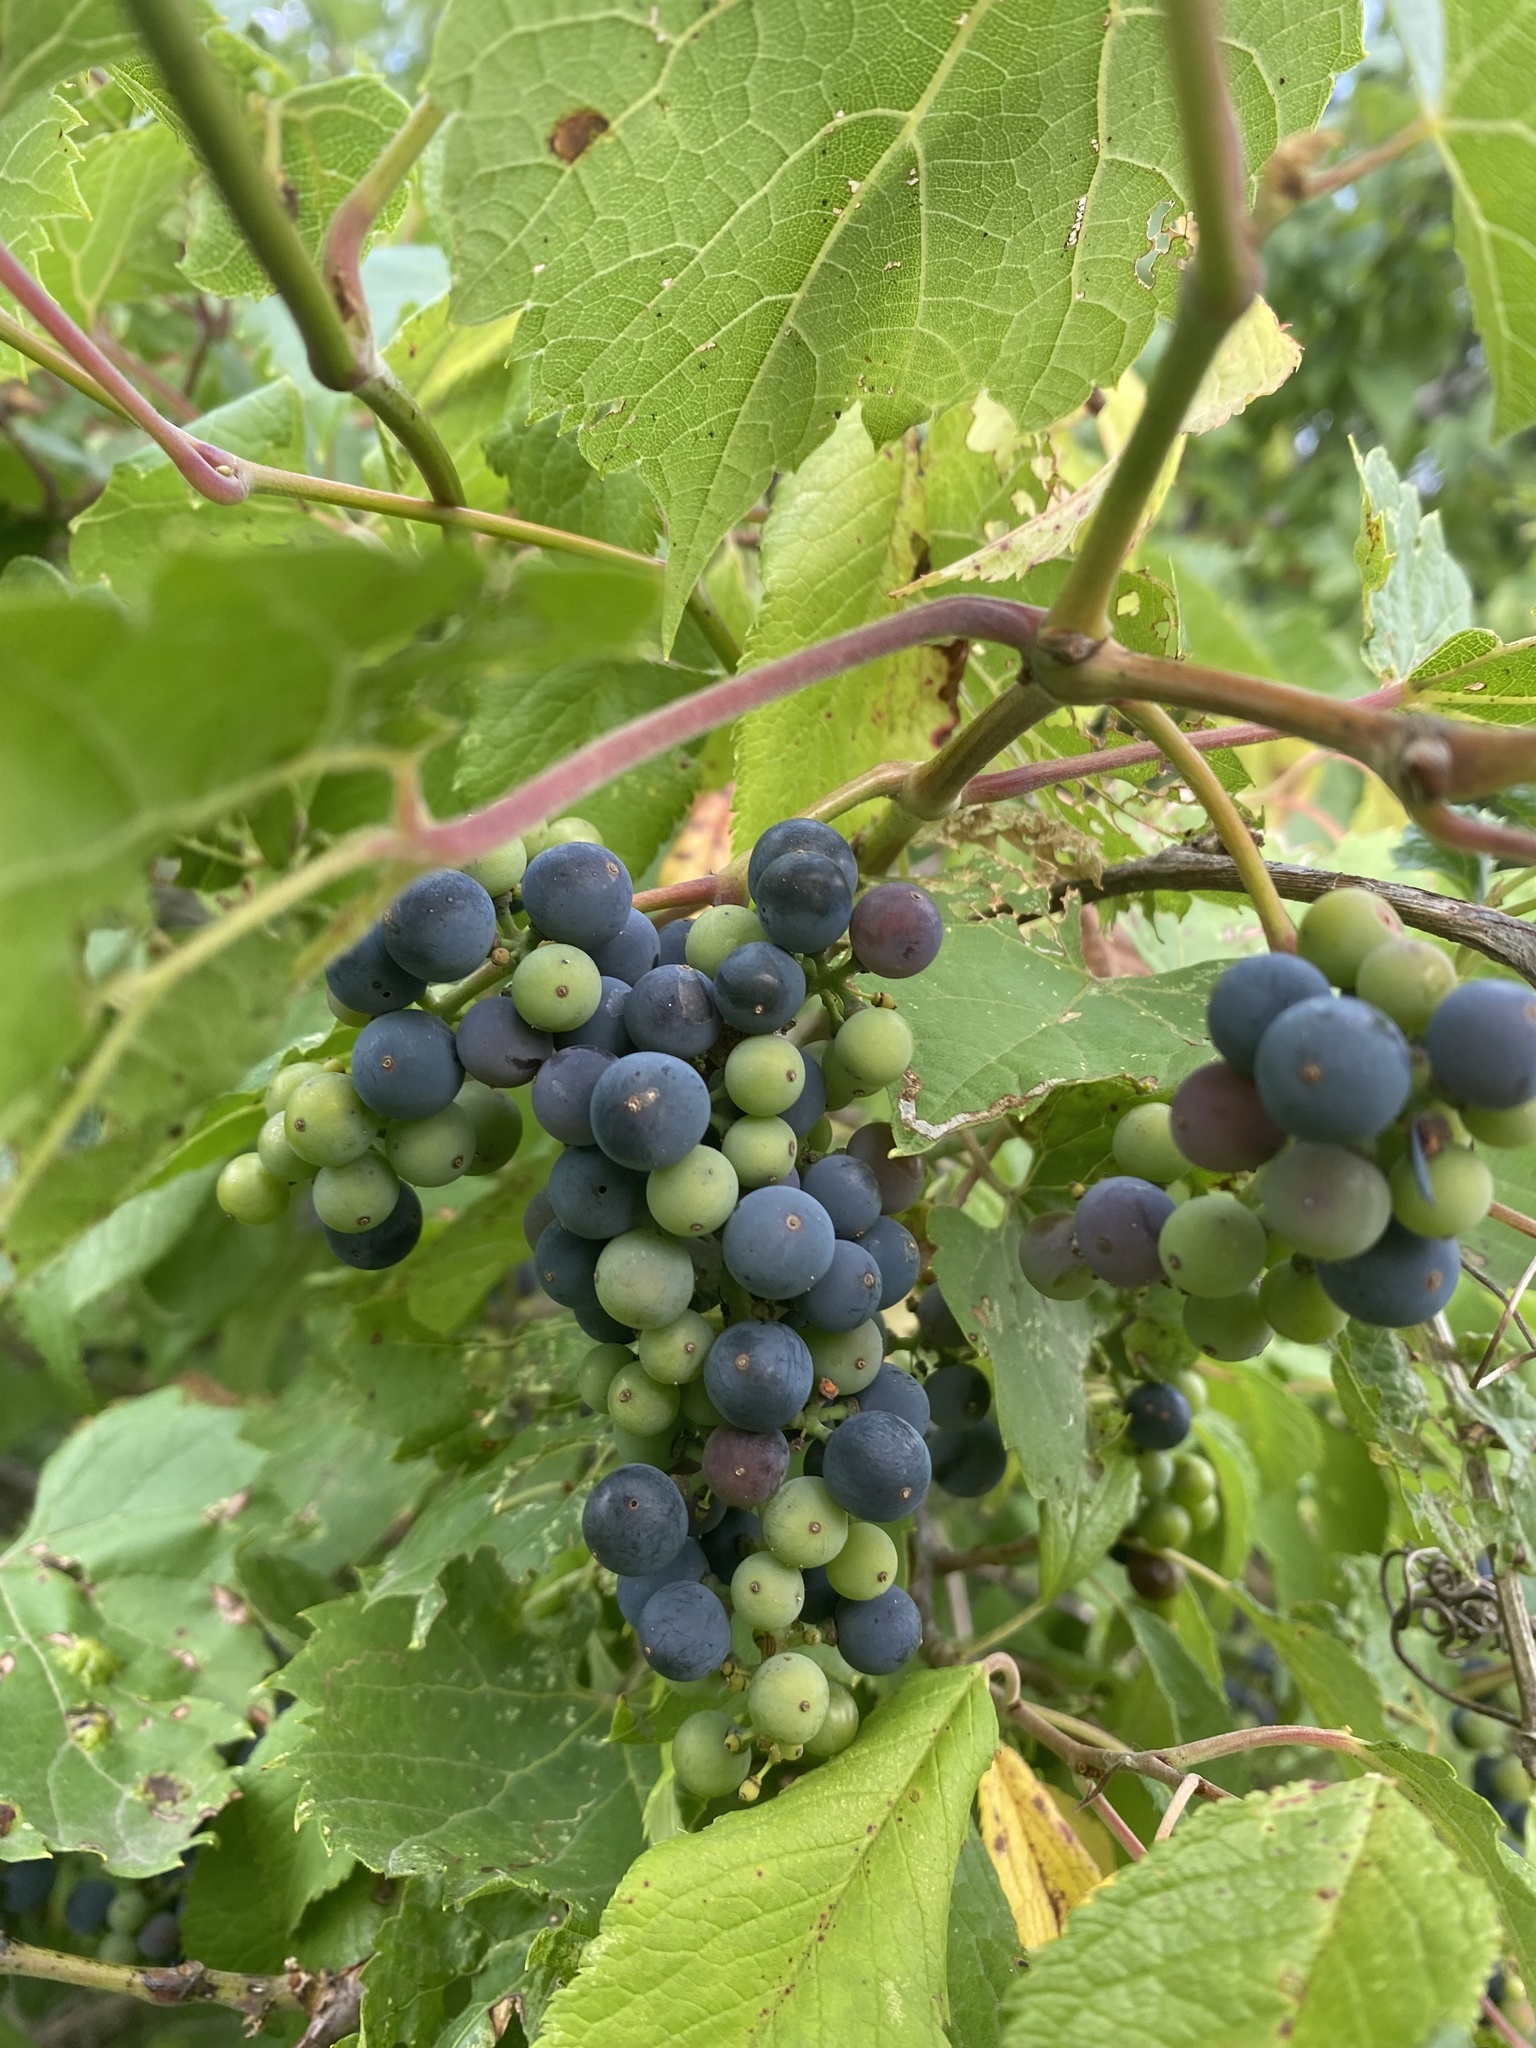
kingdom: Plantae
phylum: Tracheophyta
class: Magnoliopsida
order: Vitales
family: Vitaceae
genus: Vitis
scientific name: Vitis riparia
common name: Frost grape
